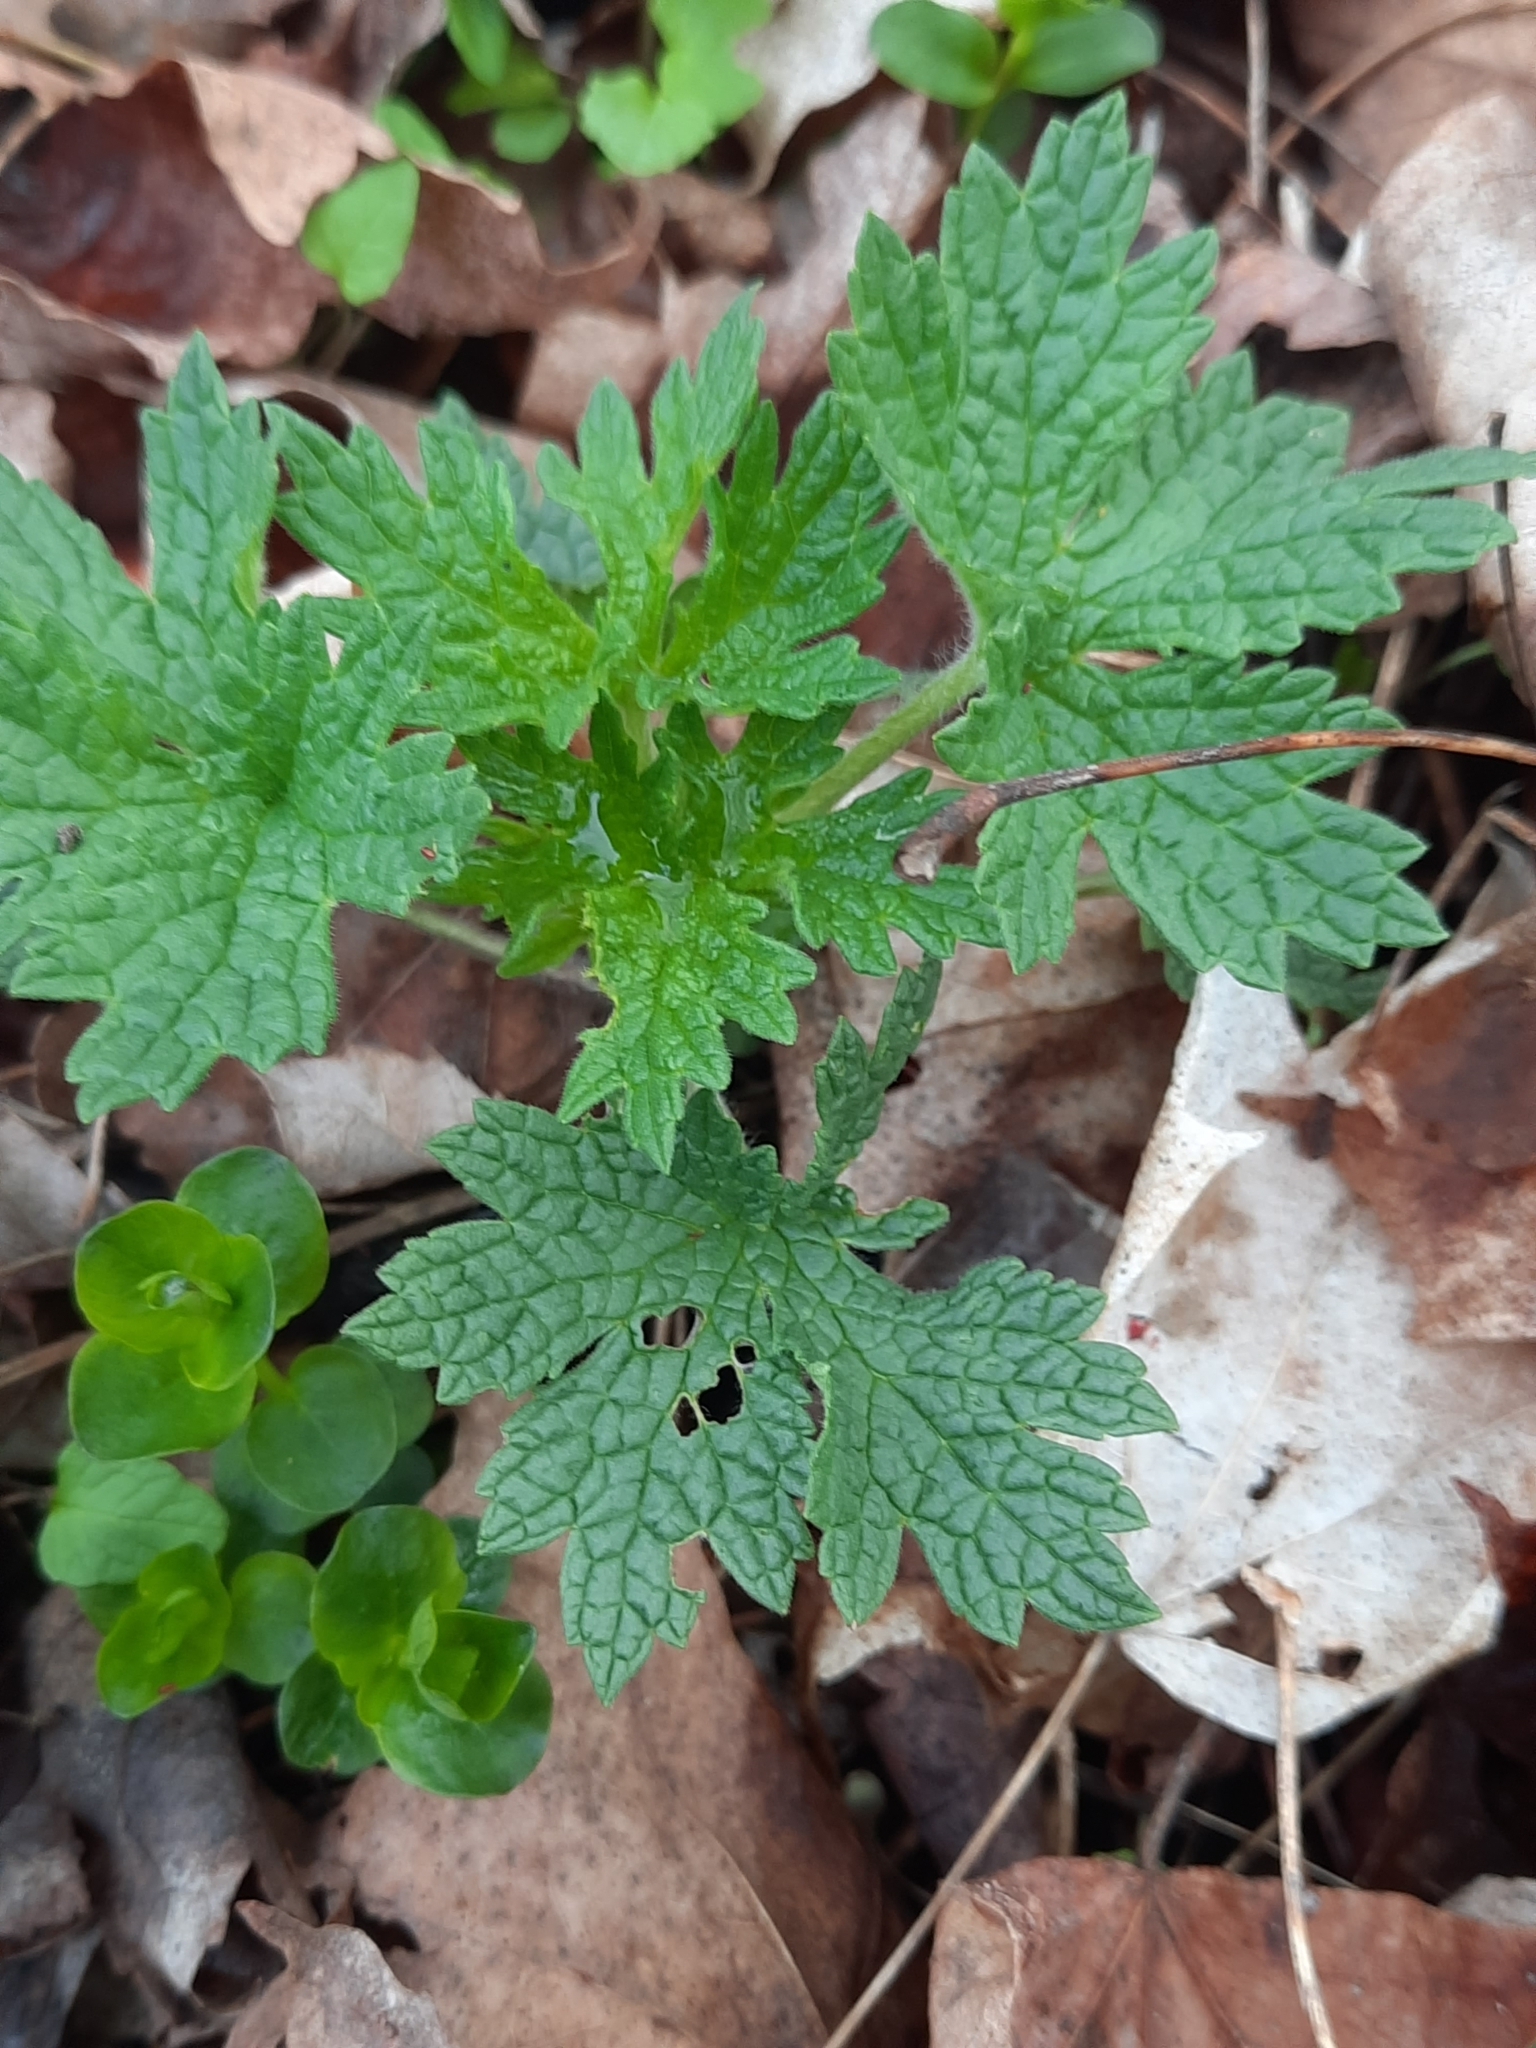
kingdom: Plantae
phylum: Tracheophyta
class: Magnoliopsida
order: Lamiales
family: Lamiaceae
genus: Leonurus
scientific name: Leonurus cardiaca
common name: Motherwort
